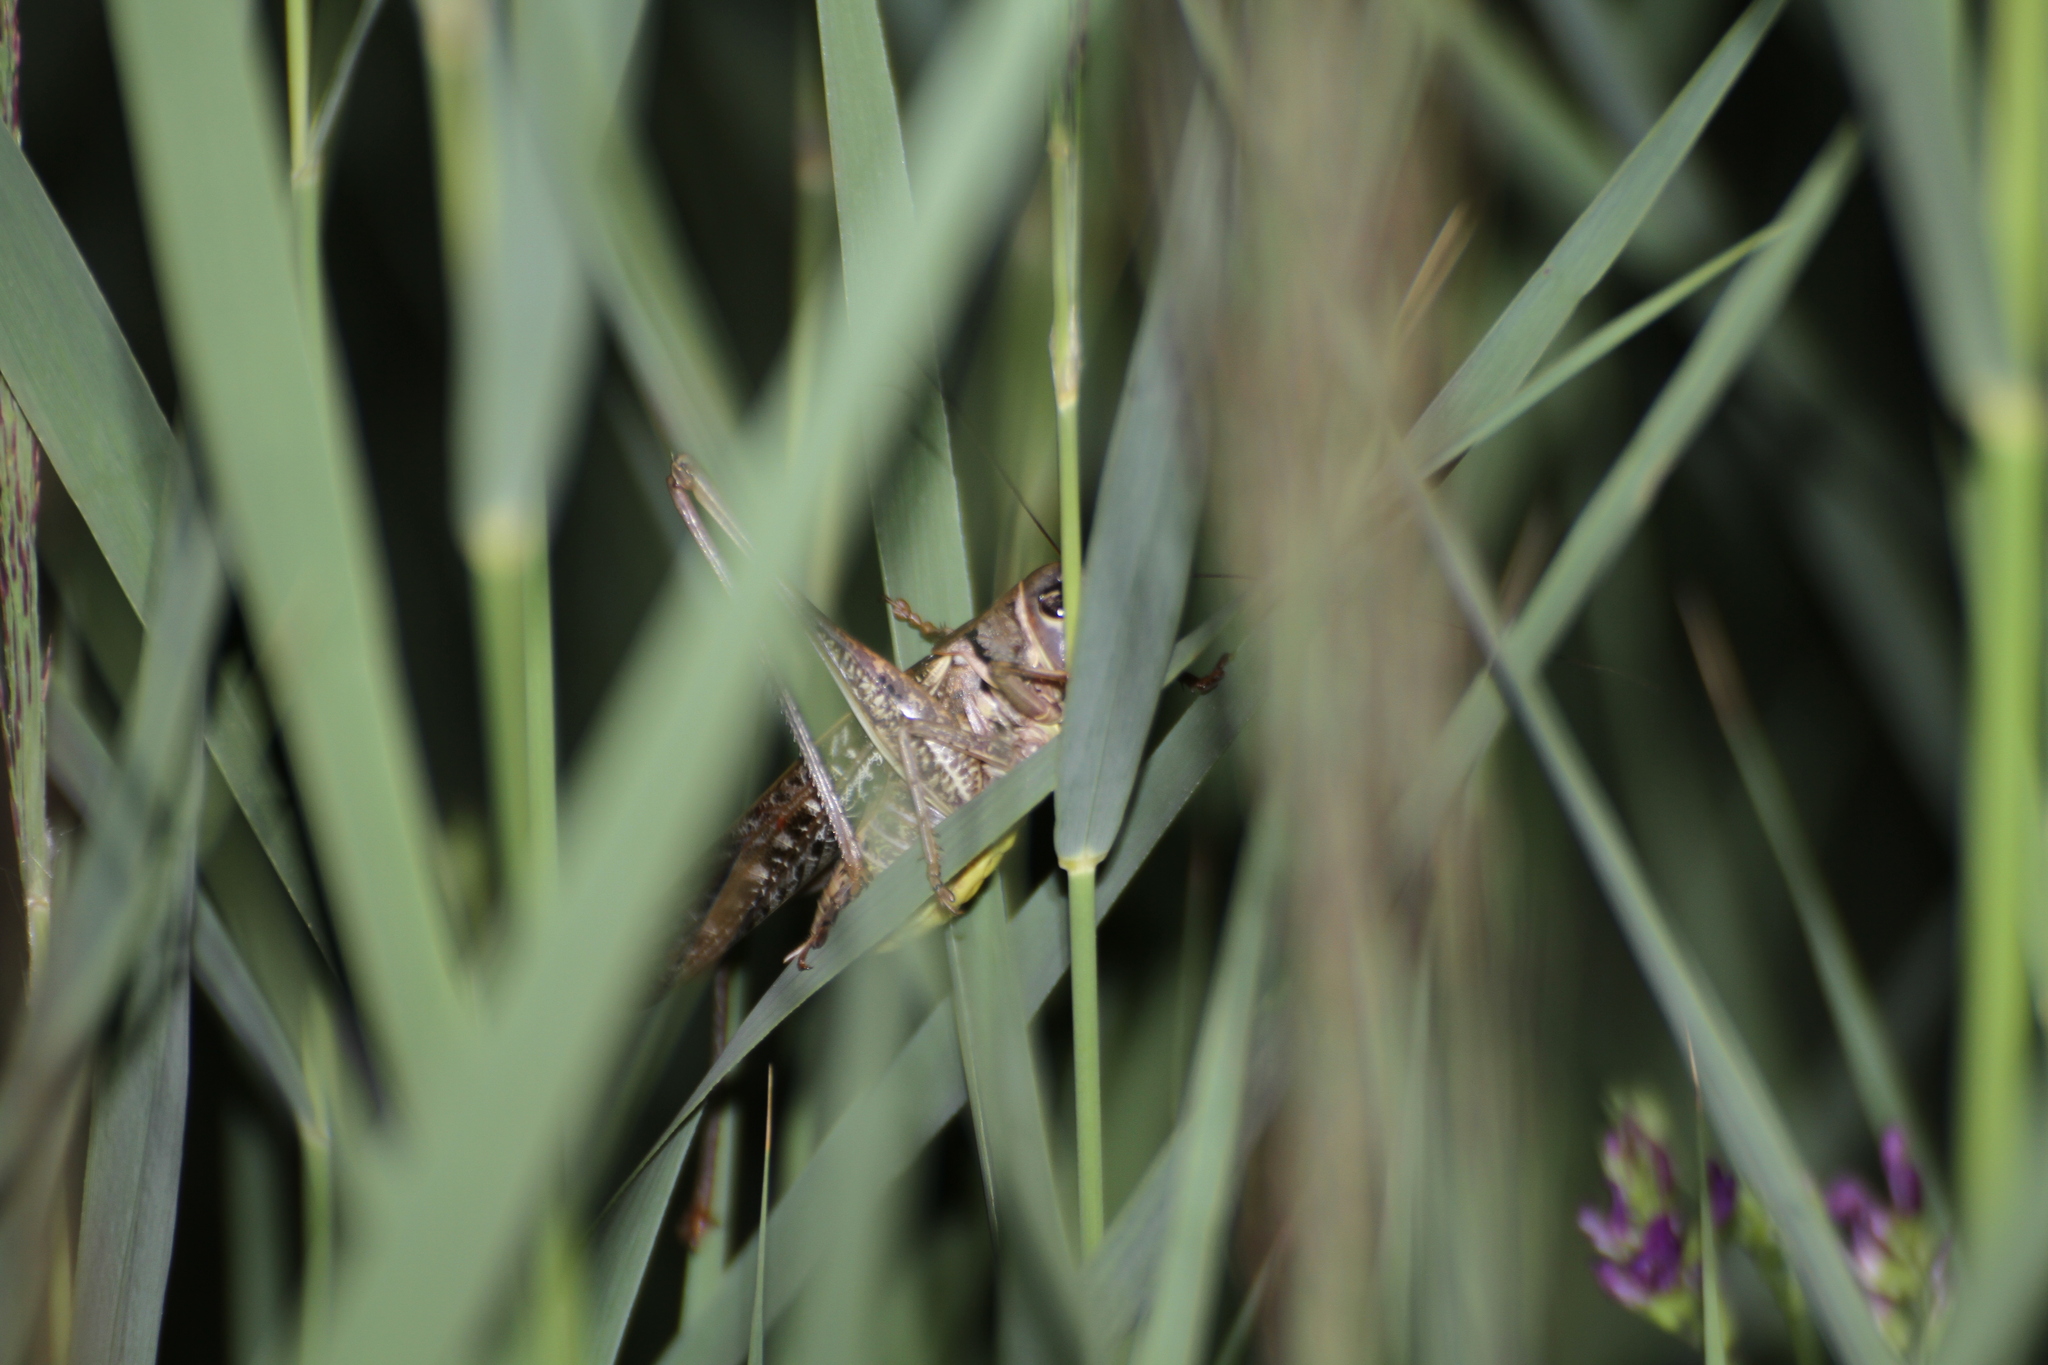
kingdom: Animalia
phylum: Arthropoda
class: Insecta
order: Orthoptera
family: Tettigoniidae
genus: Decticus
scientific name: Decticus albifrons
